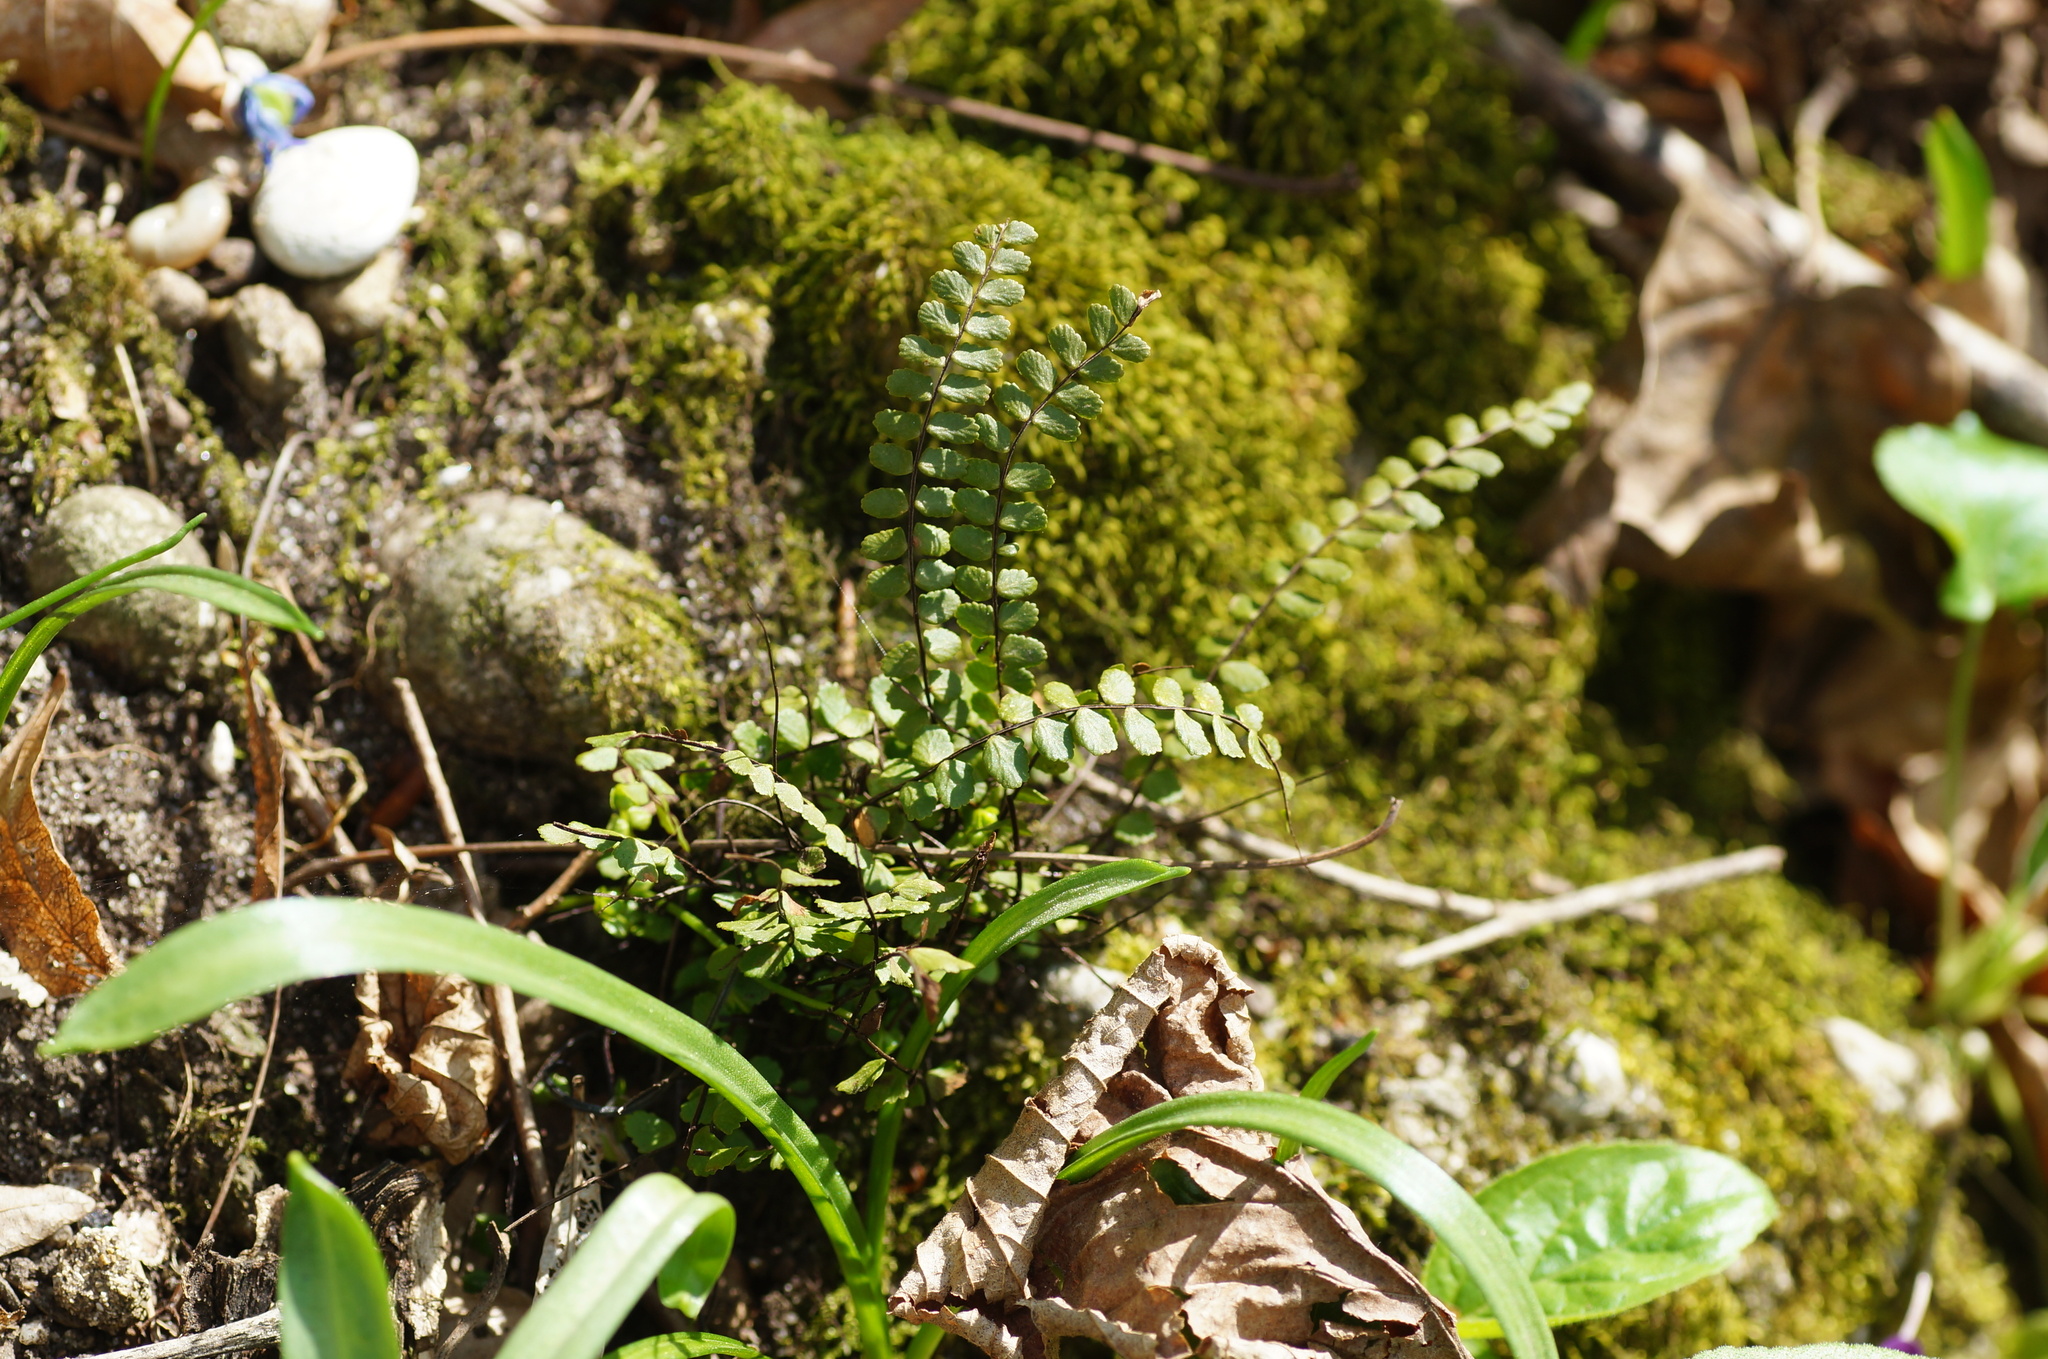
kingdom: Plantae
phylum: Tracheophyta
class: Polypodiopsida
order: Polypodiales
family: Aspleniaceae
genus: Asplenium
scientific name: Asplenium trichomanes
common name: Maidenhair spleenwort
